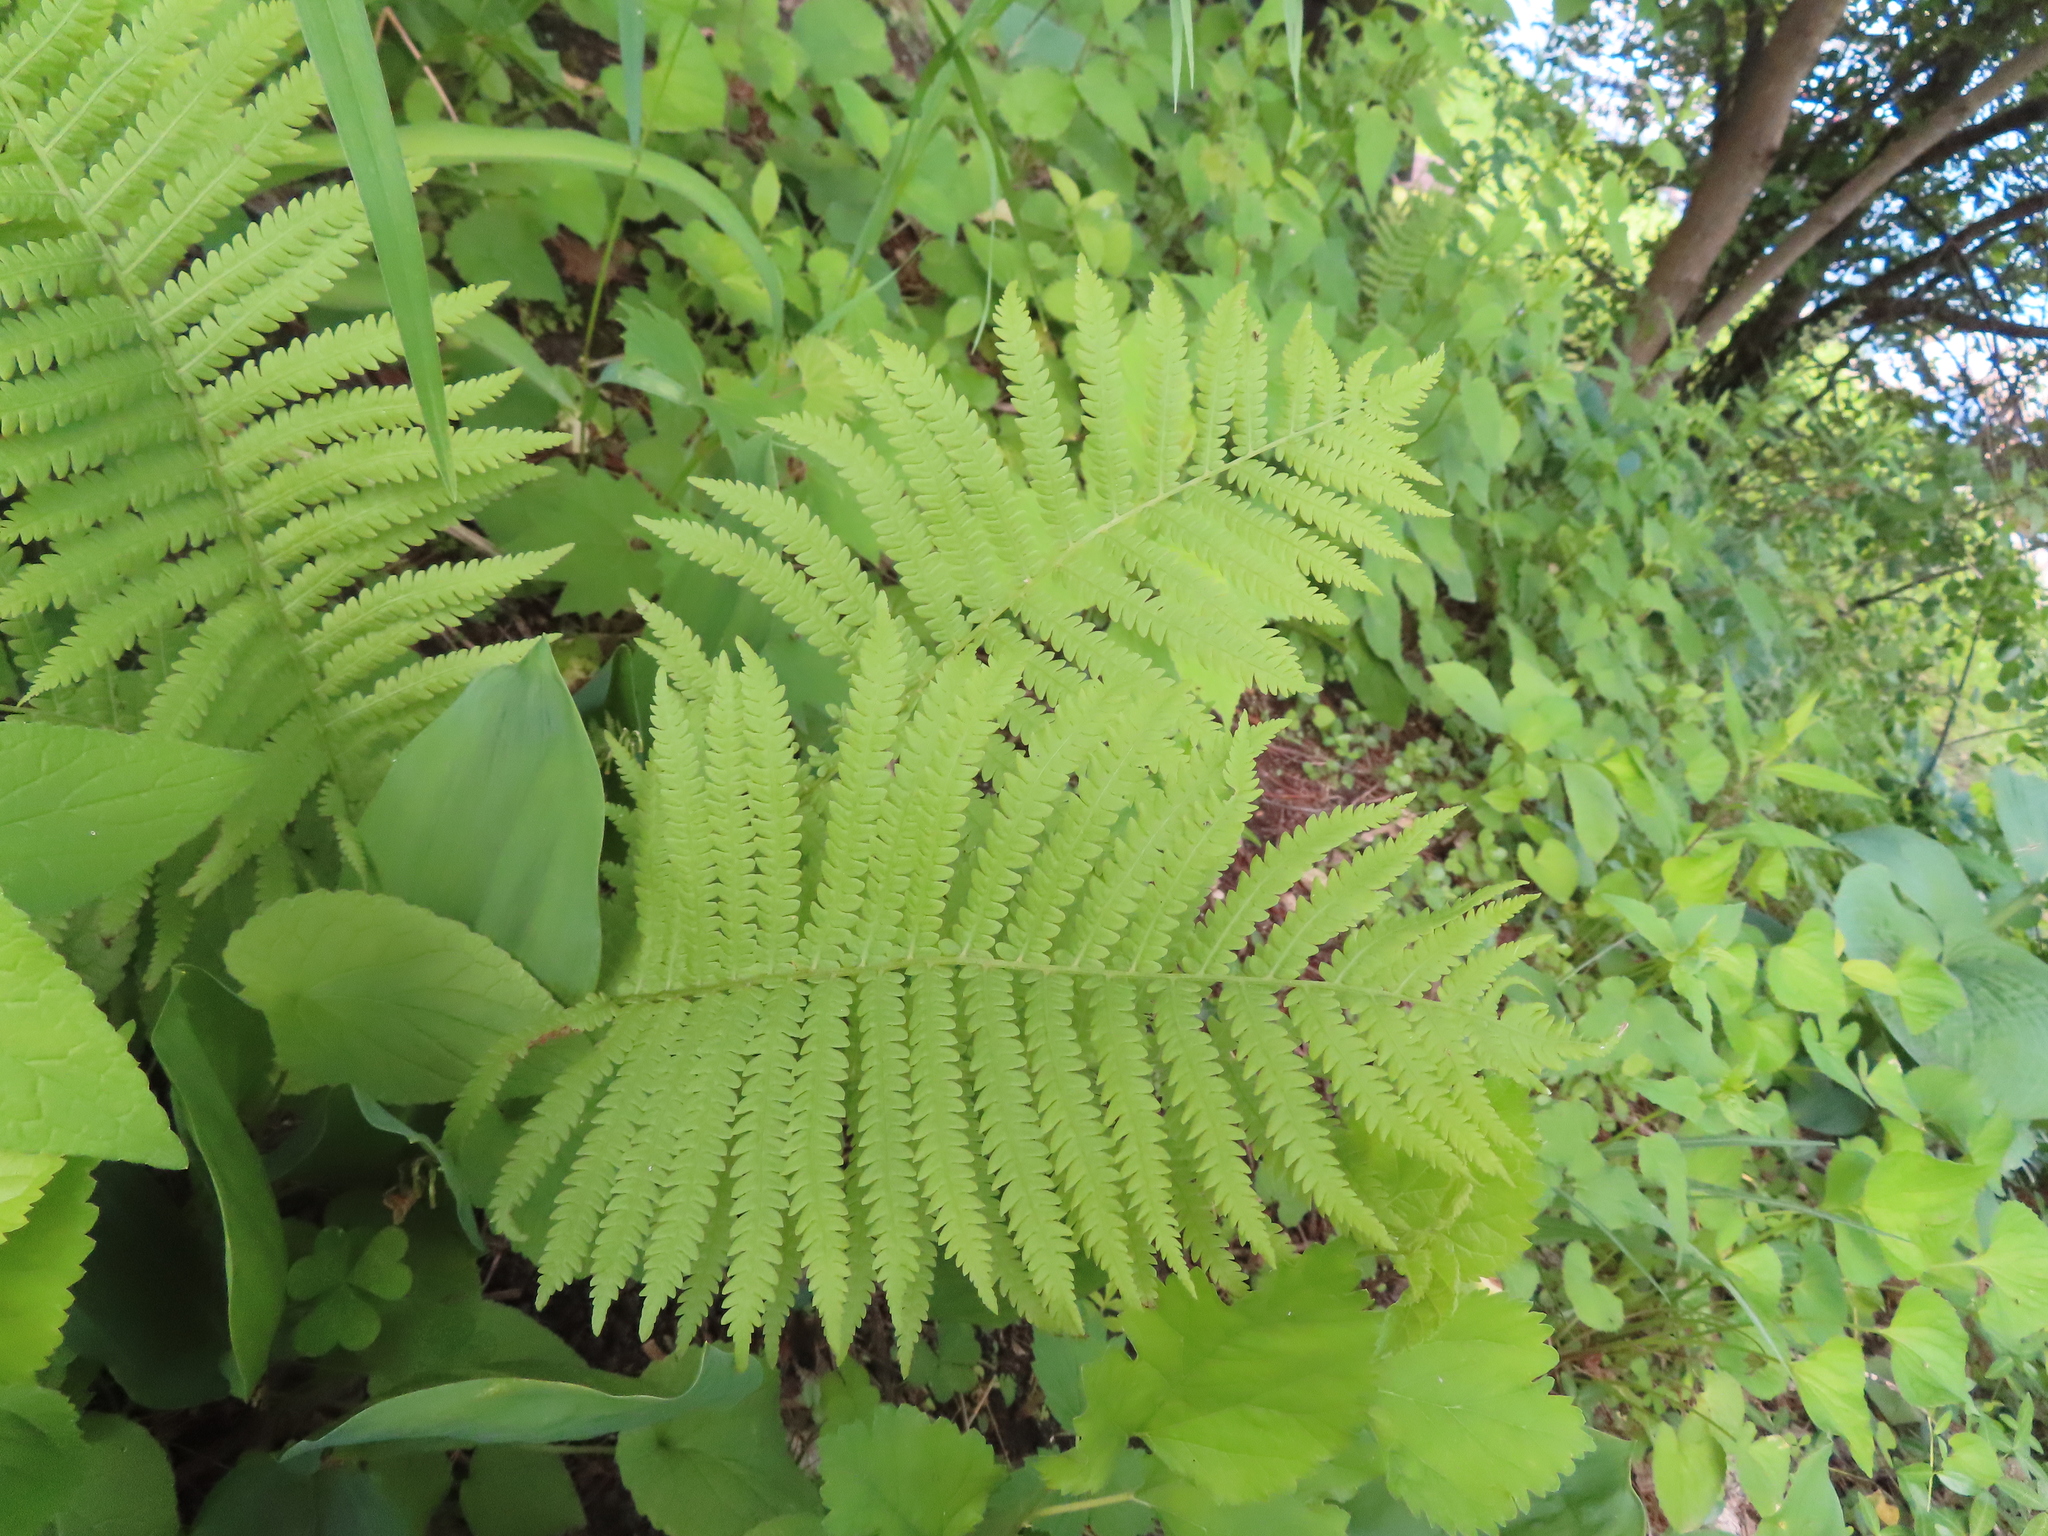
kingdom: Plantae
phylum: Tracheophyta
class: Polypodiopsida
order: Polypodiales
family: Onocleaceae
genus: Matteuccia
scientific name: Matteuccia struthiopteris
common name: Ostrich fern
